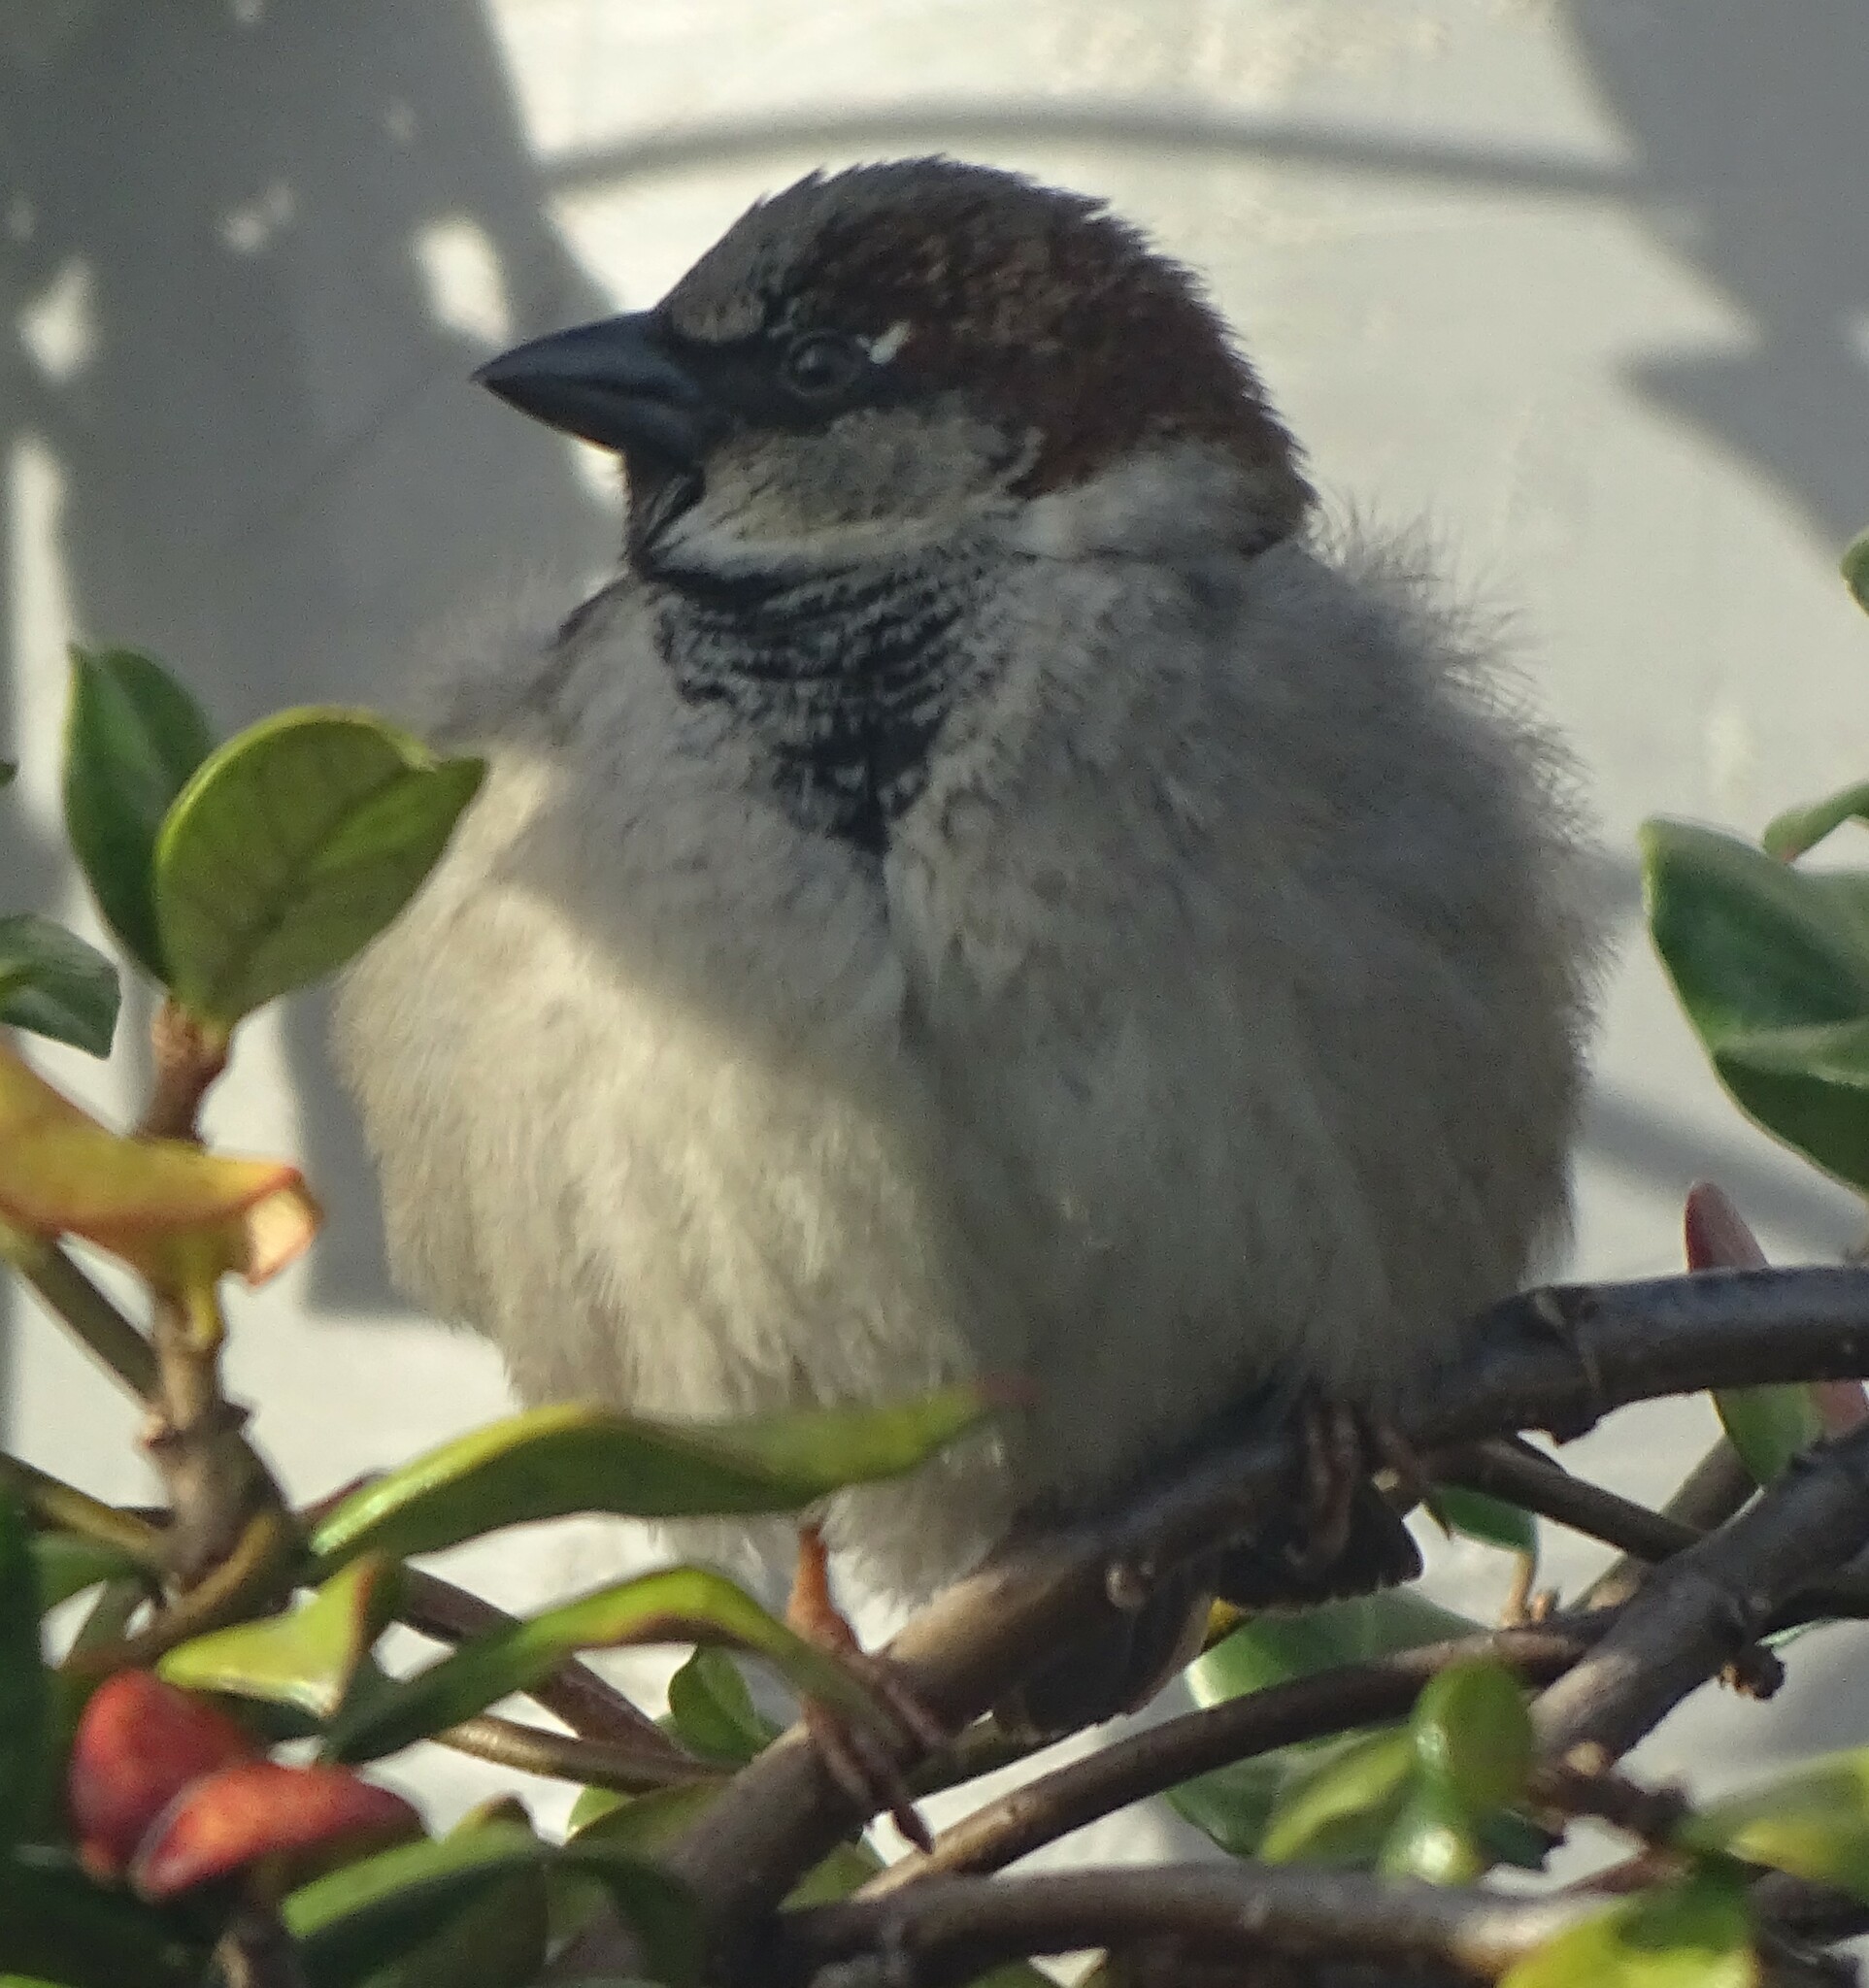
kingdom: Animalia
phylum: Chordata
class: Aves
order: Passeriformes
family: Passeridae
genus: Passer
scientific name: Passer domesticus
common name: House sparrow
